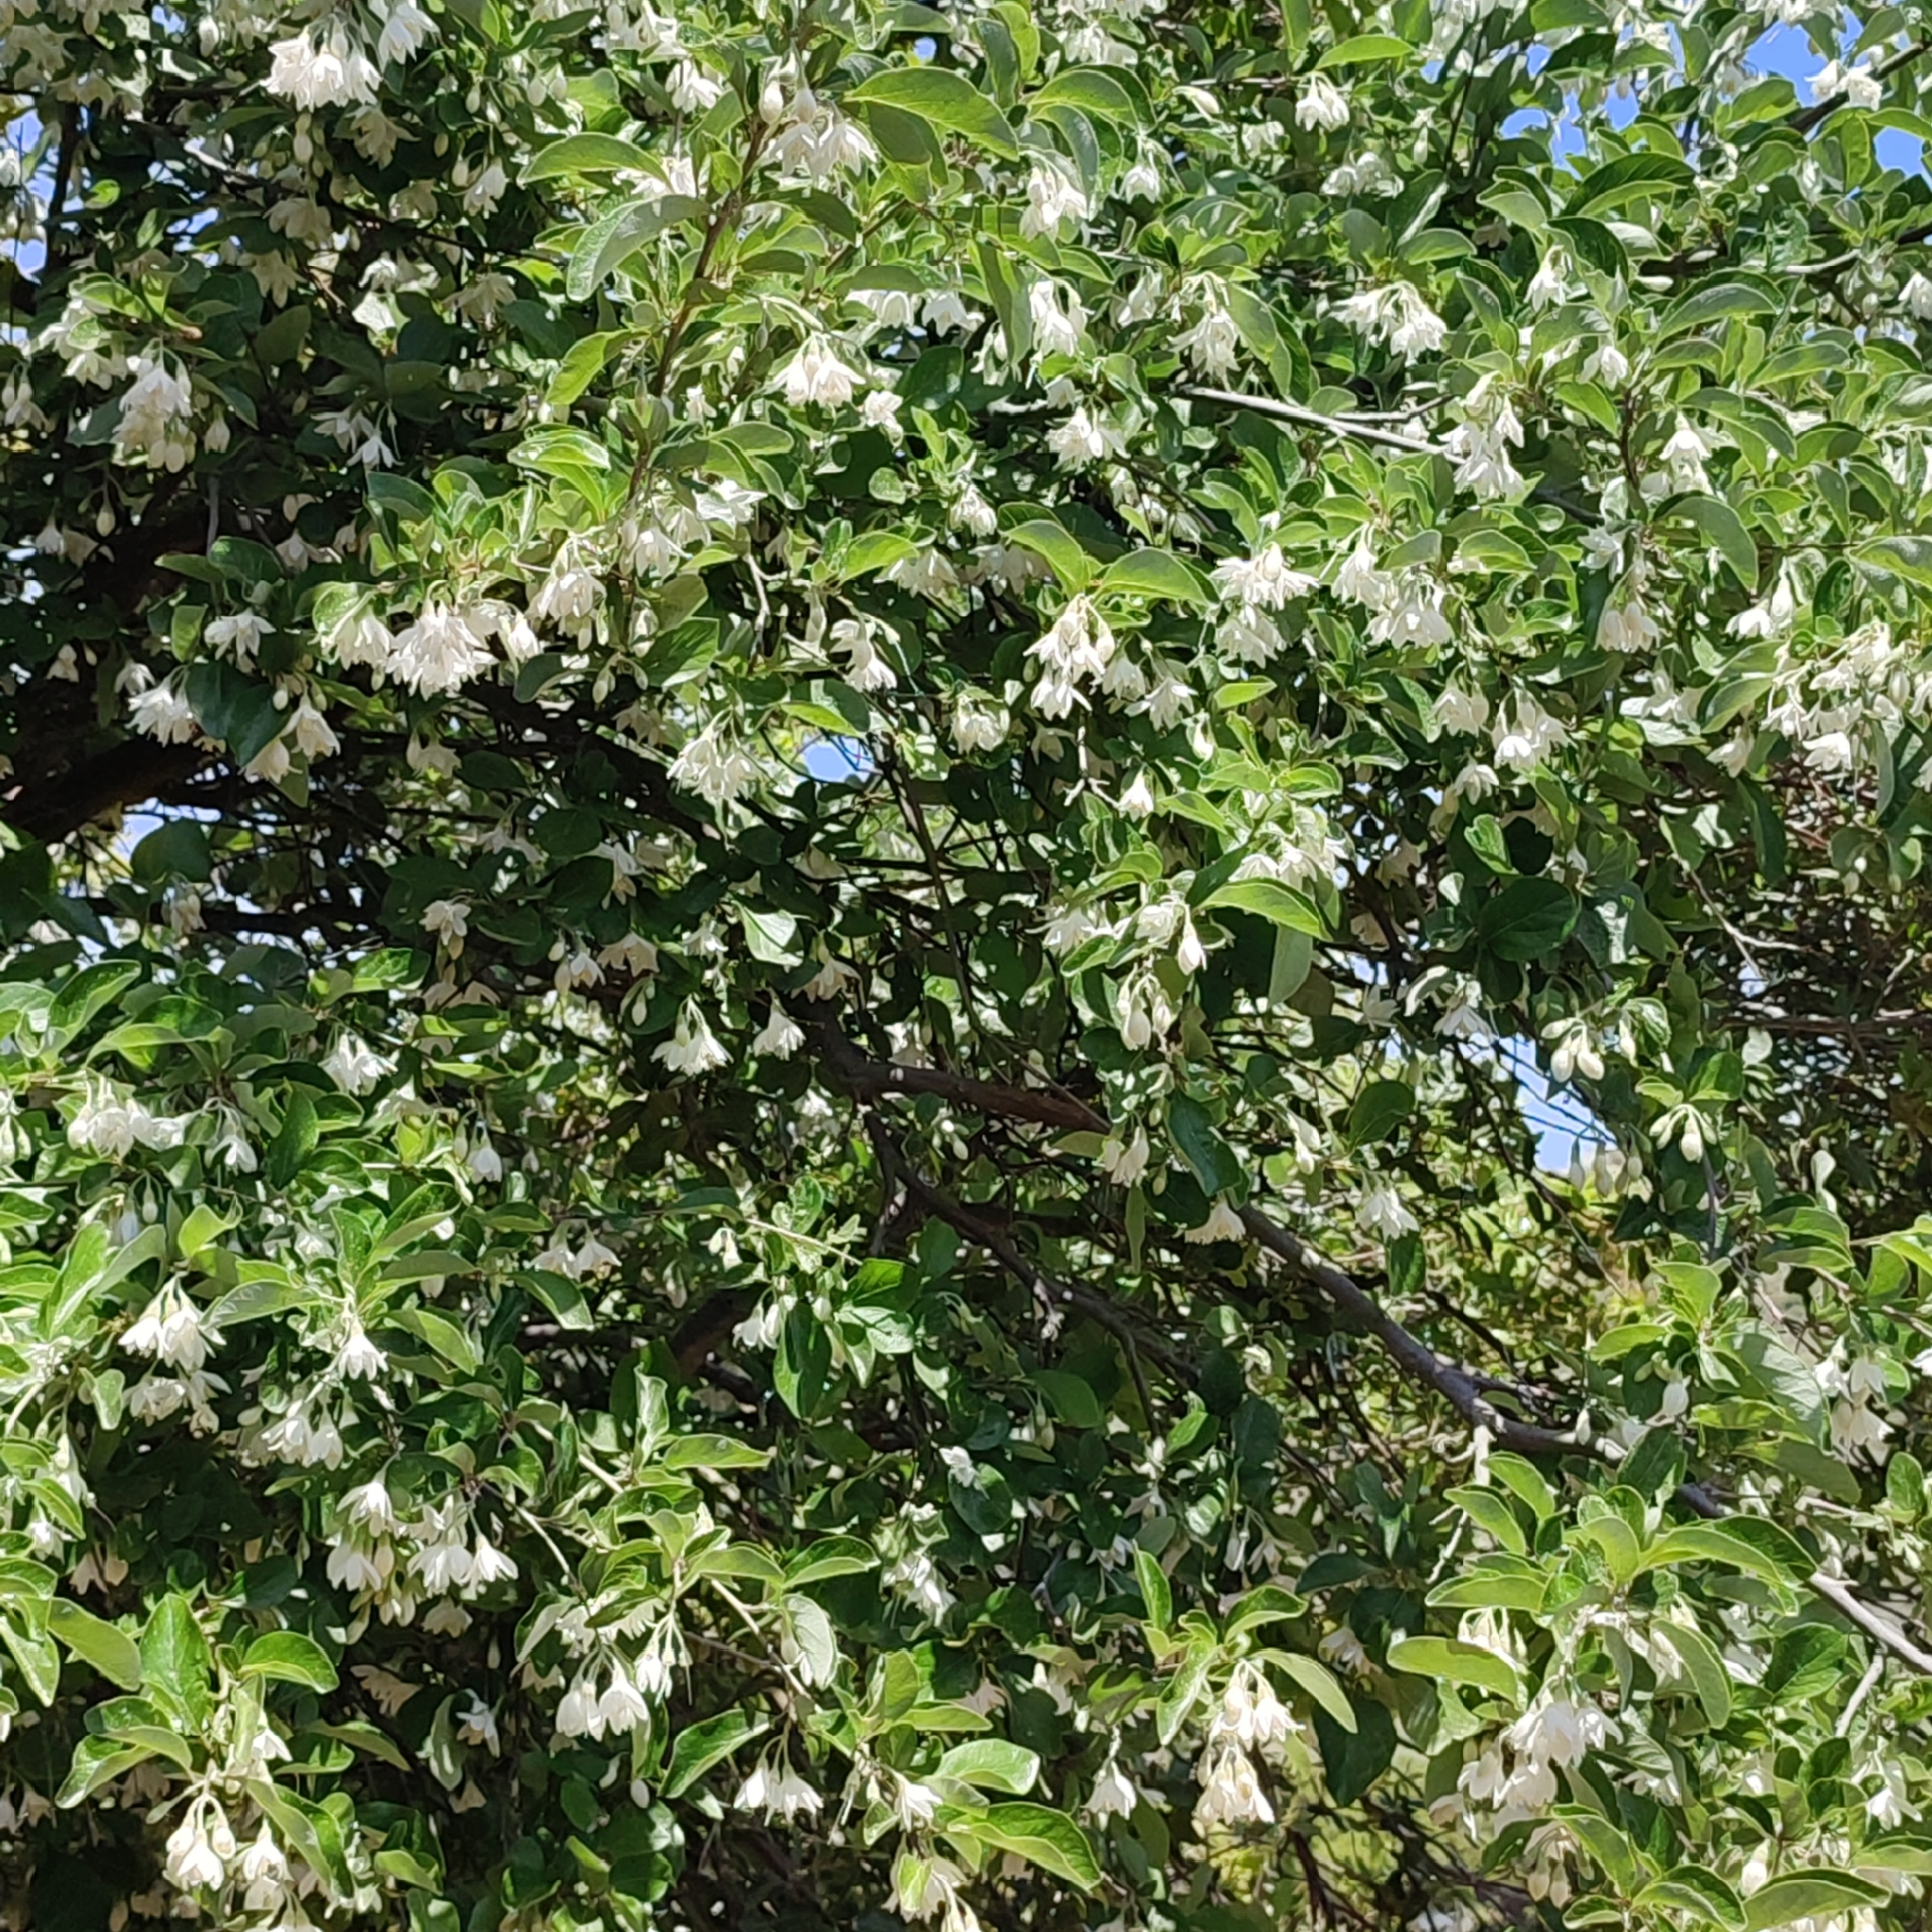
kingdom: Plantae
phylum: Tracheophyta
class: Magnoliopsida
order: Ericales
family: Styracaceae
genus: Styrax
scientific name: Styrax officinalis
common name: Storax
